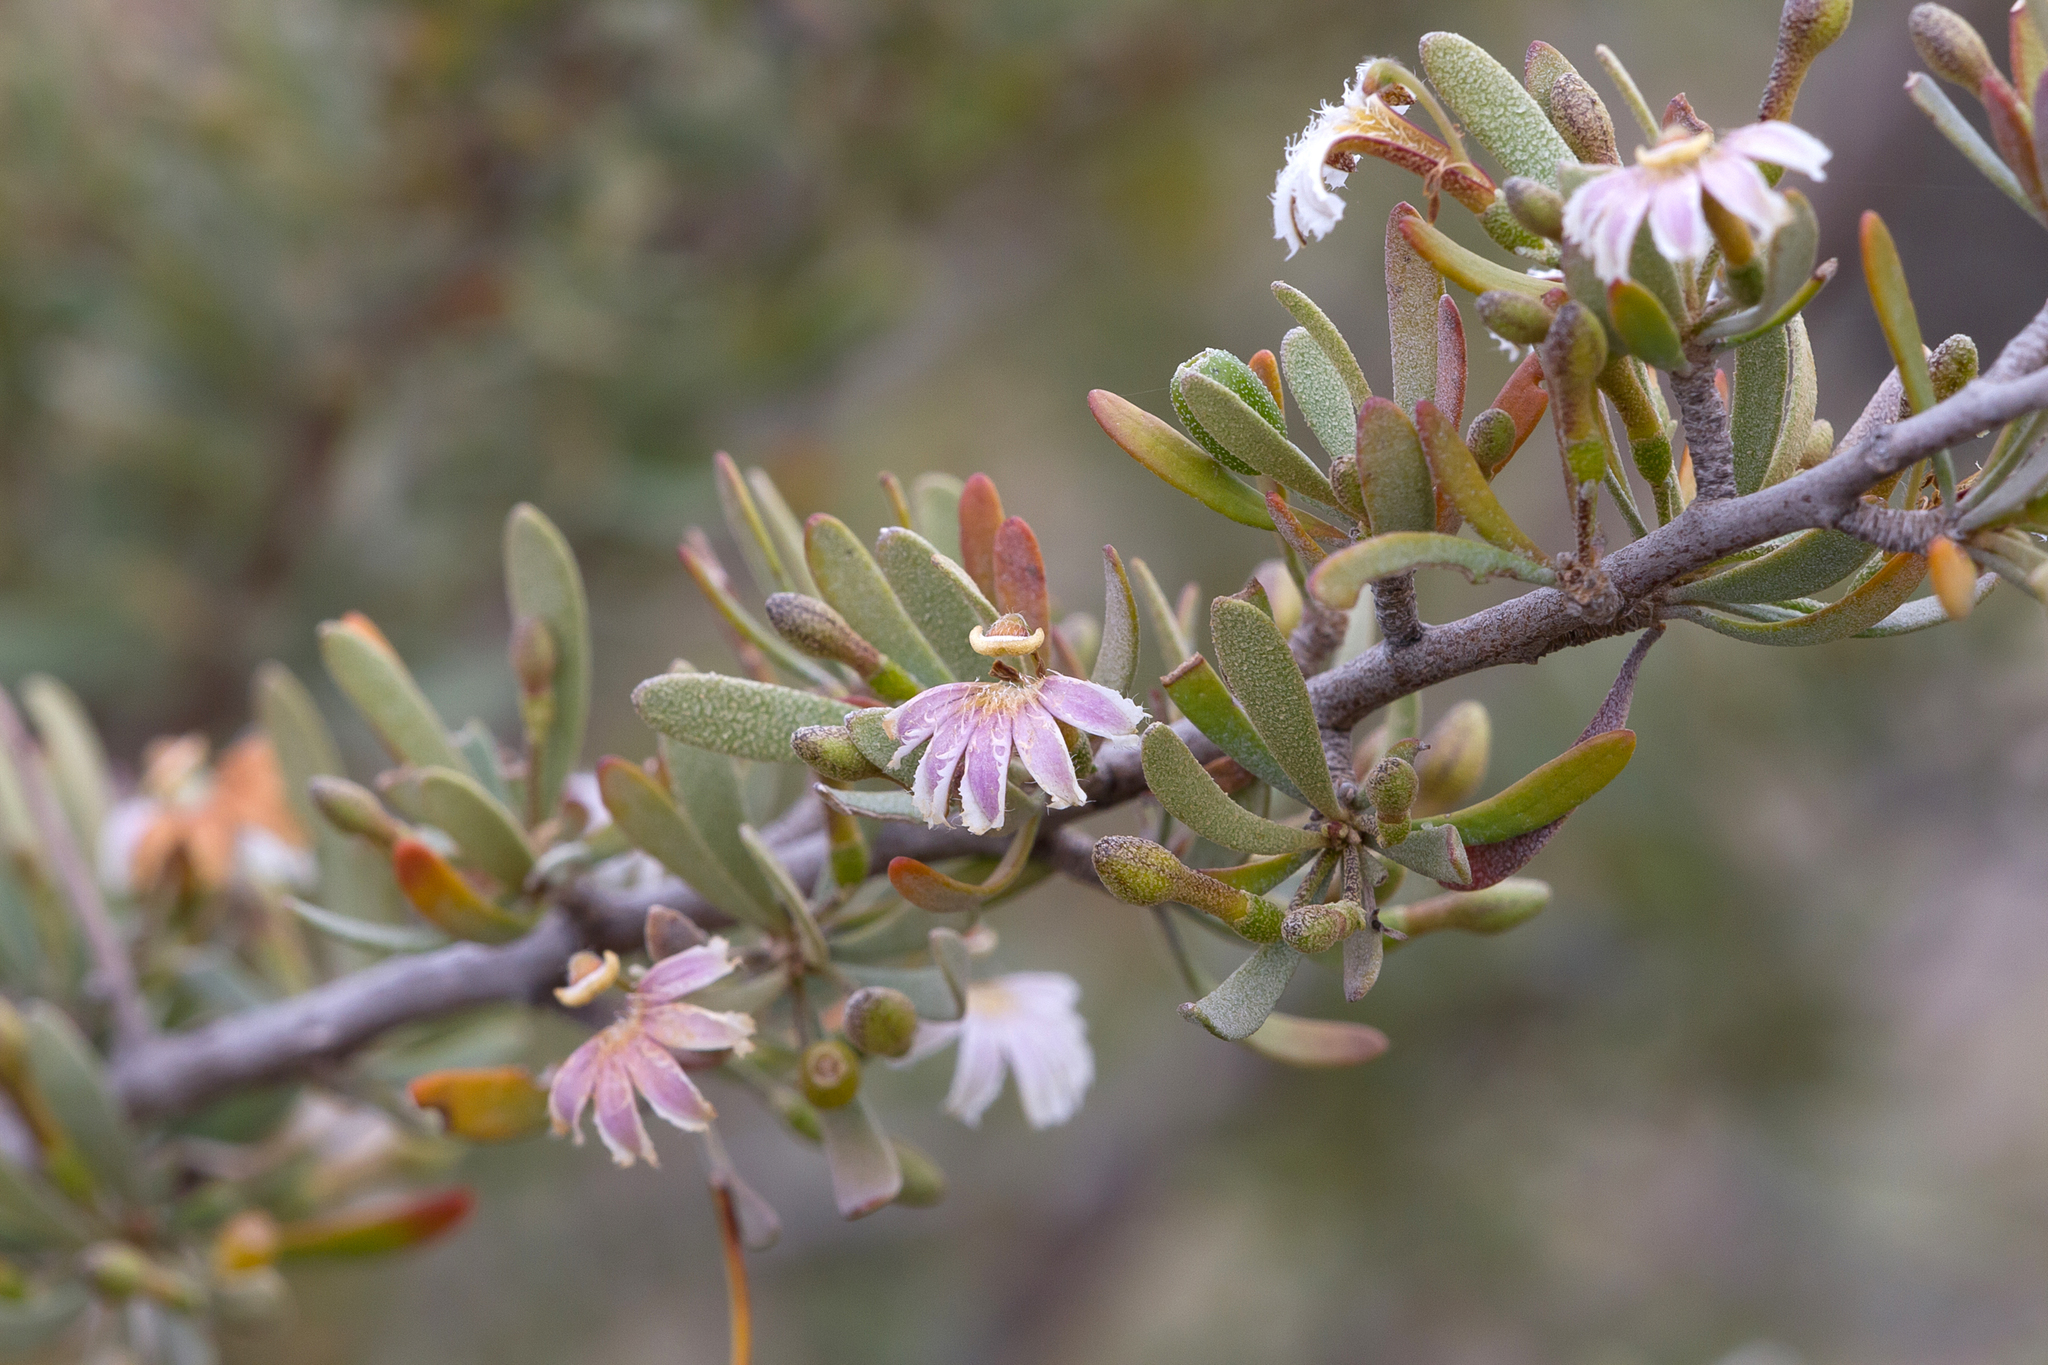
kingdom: Plantae
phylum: Tracheophyta
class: Magnoliopsida
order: Asterales
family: Goodeniaceae
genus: Scaevola
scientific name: Scaevola spinescens
